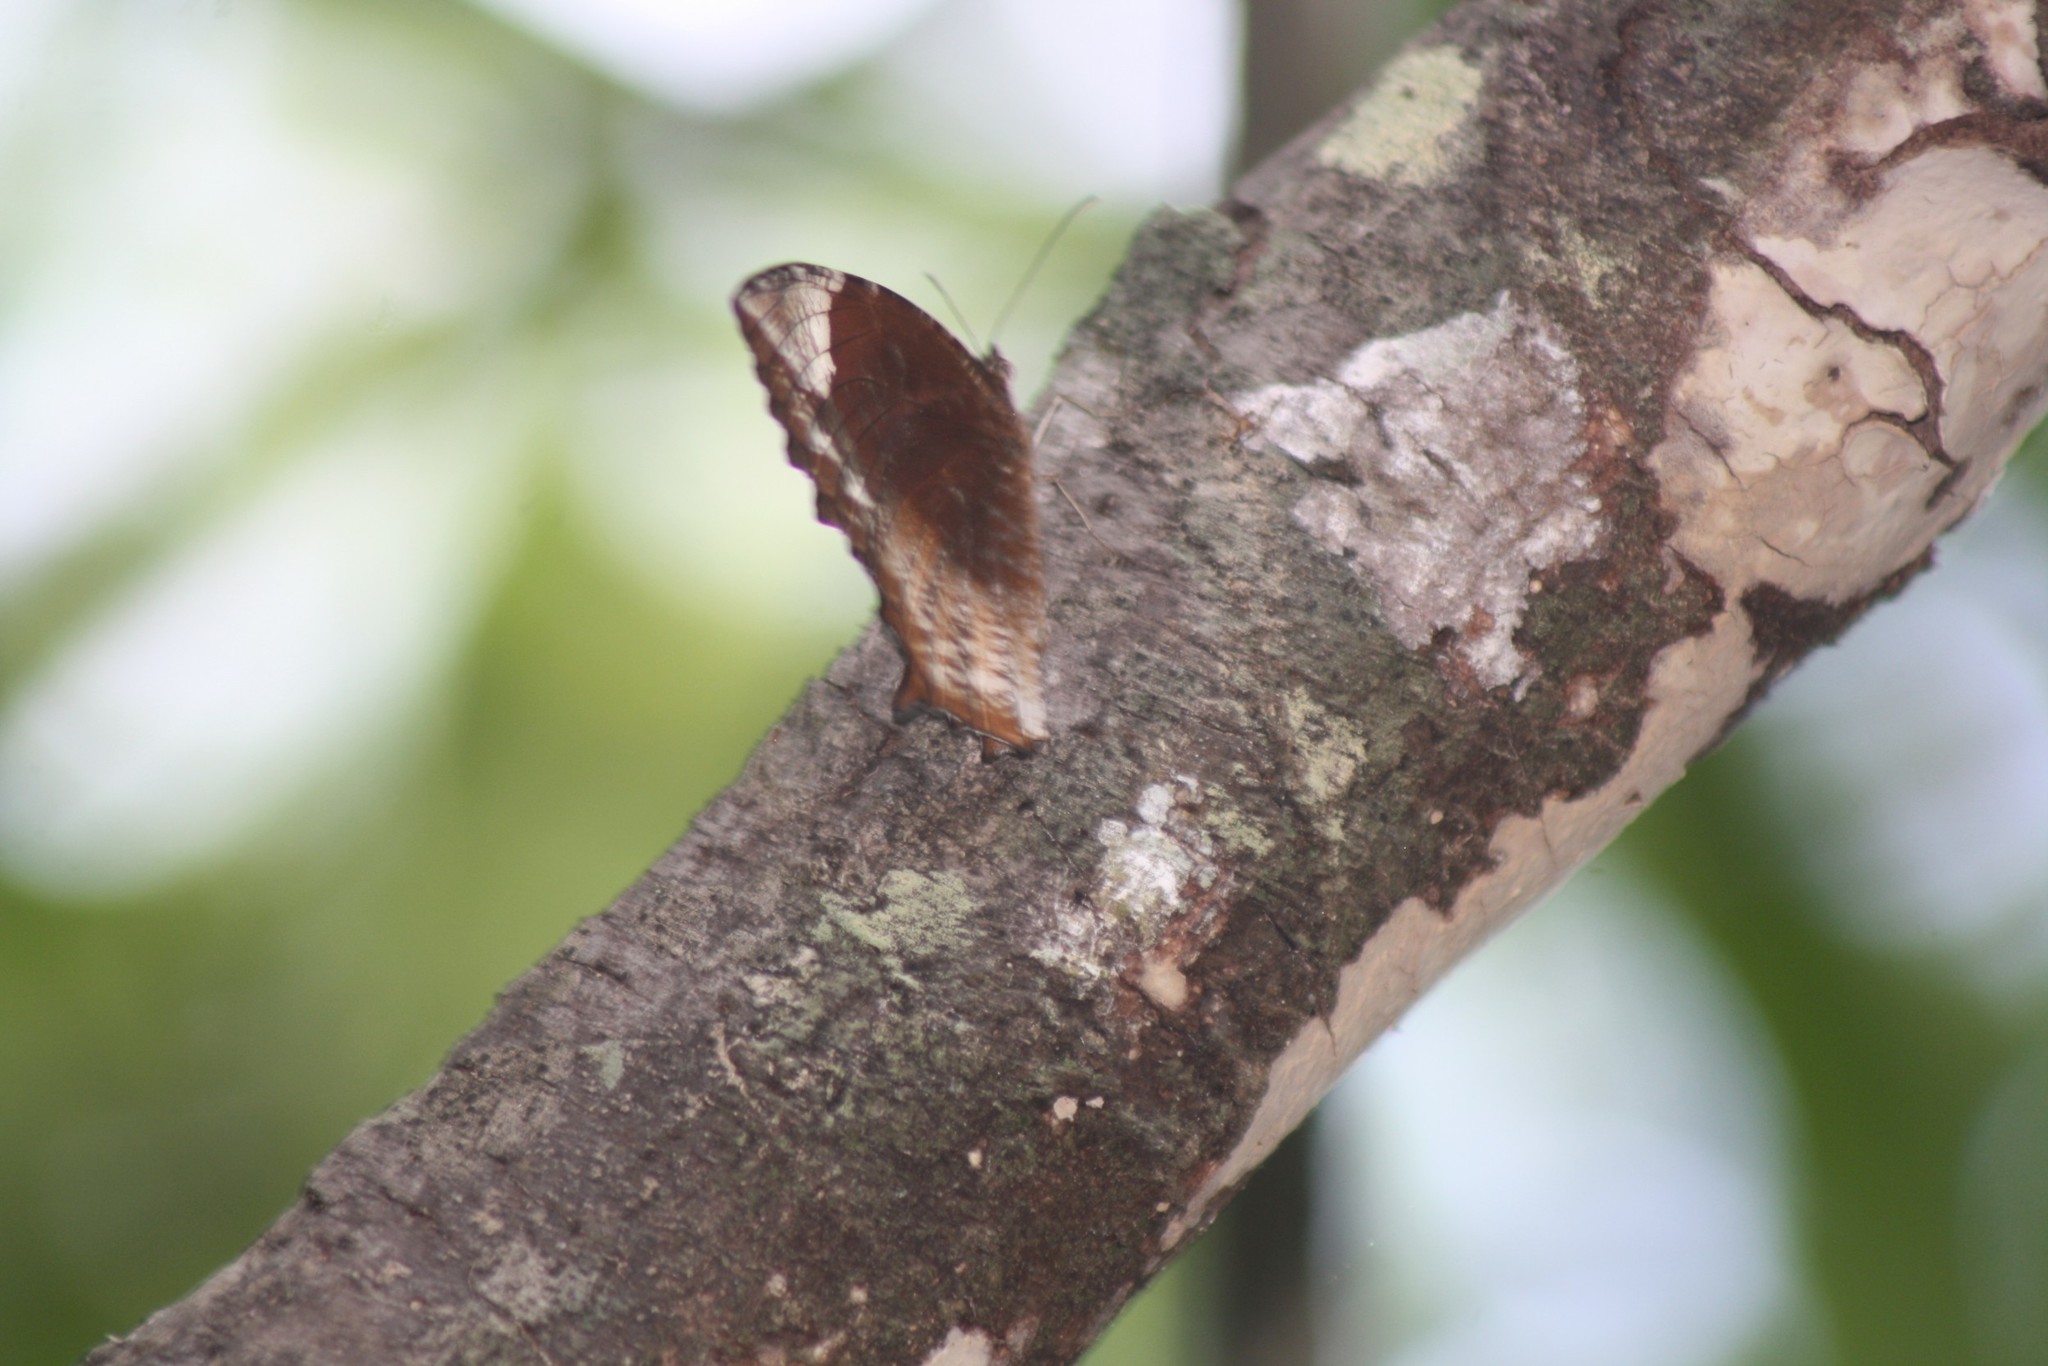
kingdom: Animalia
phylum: Arthropoda
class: Insecta
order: Lepidoptera
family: Nymphalidae
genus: Elymnias
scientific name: Elymnias caudata
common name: Tailed palmfly
